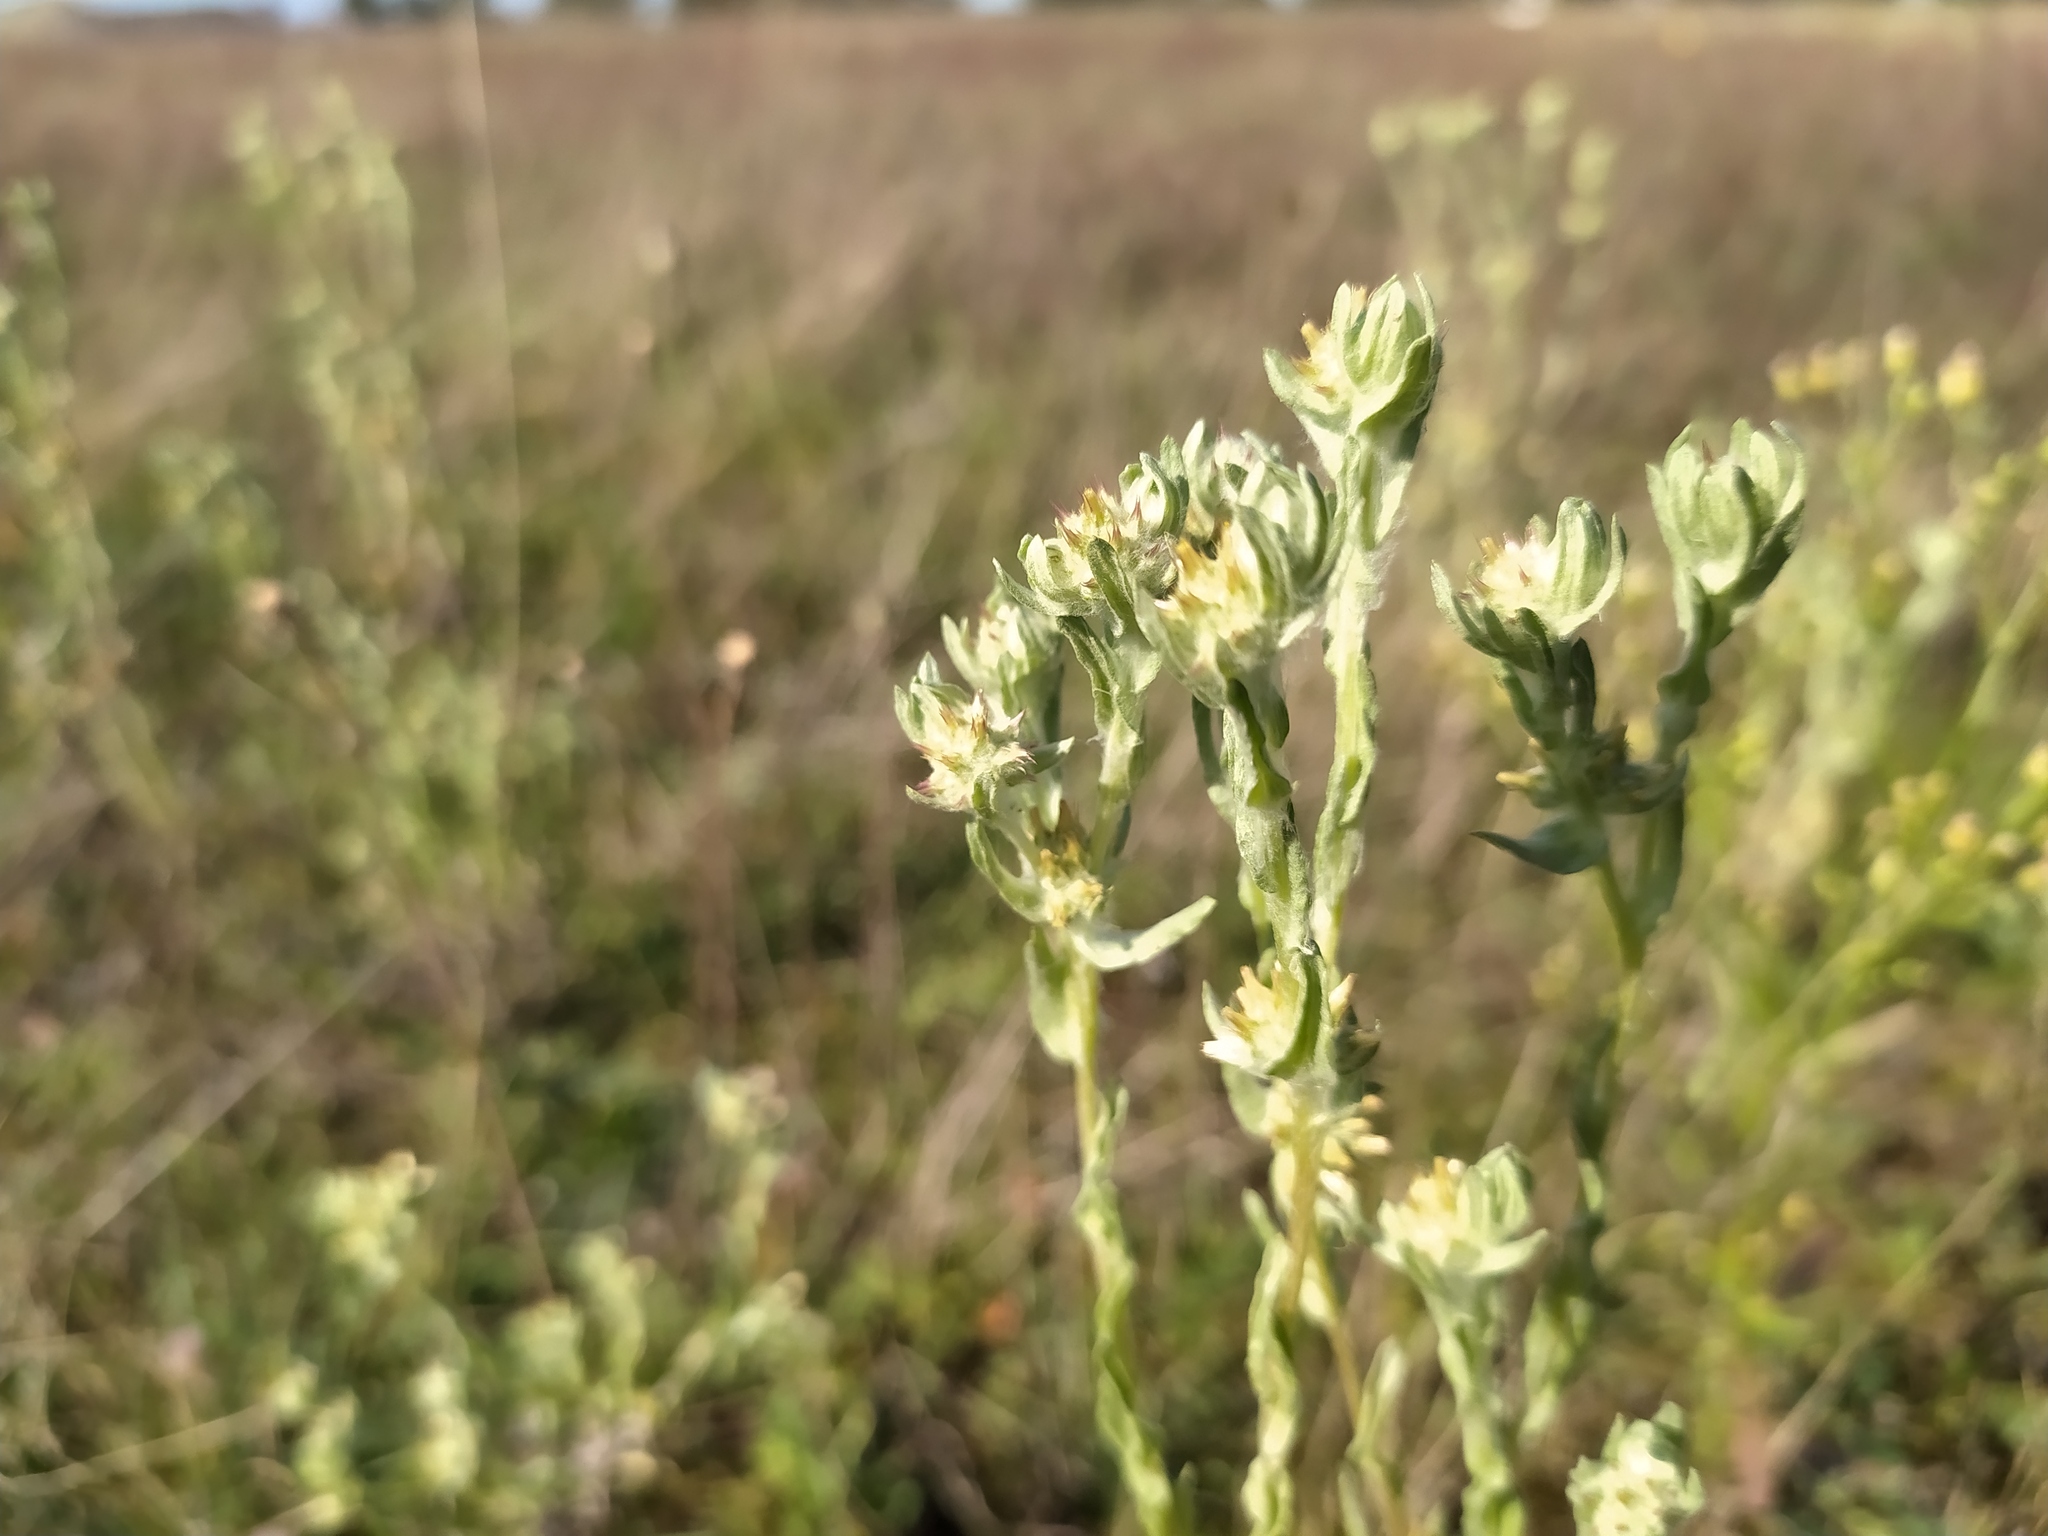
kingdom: Plantae
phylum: Tracheophyta
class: Magnoliopsida
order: Asterales
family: Asteraceae
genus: Filago
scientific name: Filago lutescens
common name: Red-tipped cudweed
